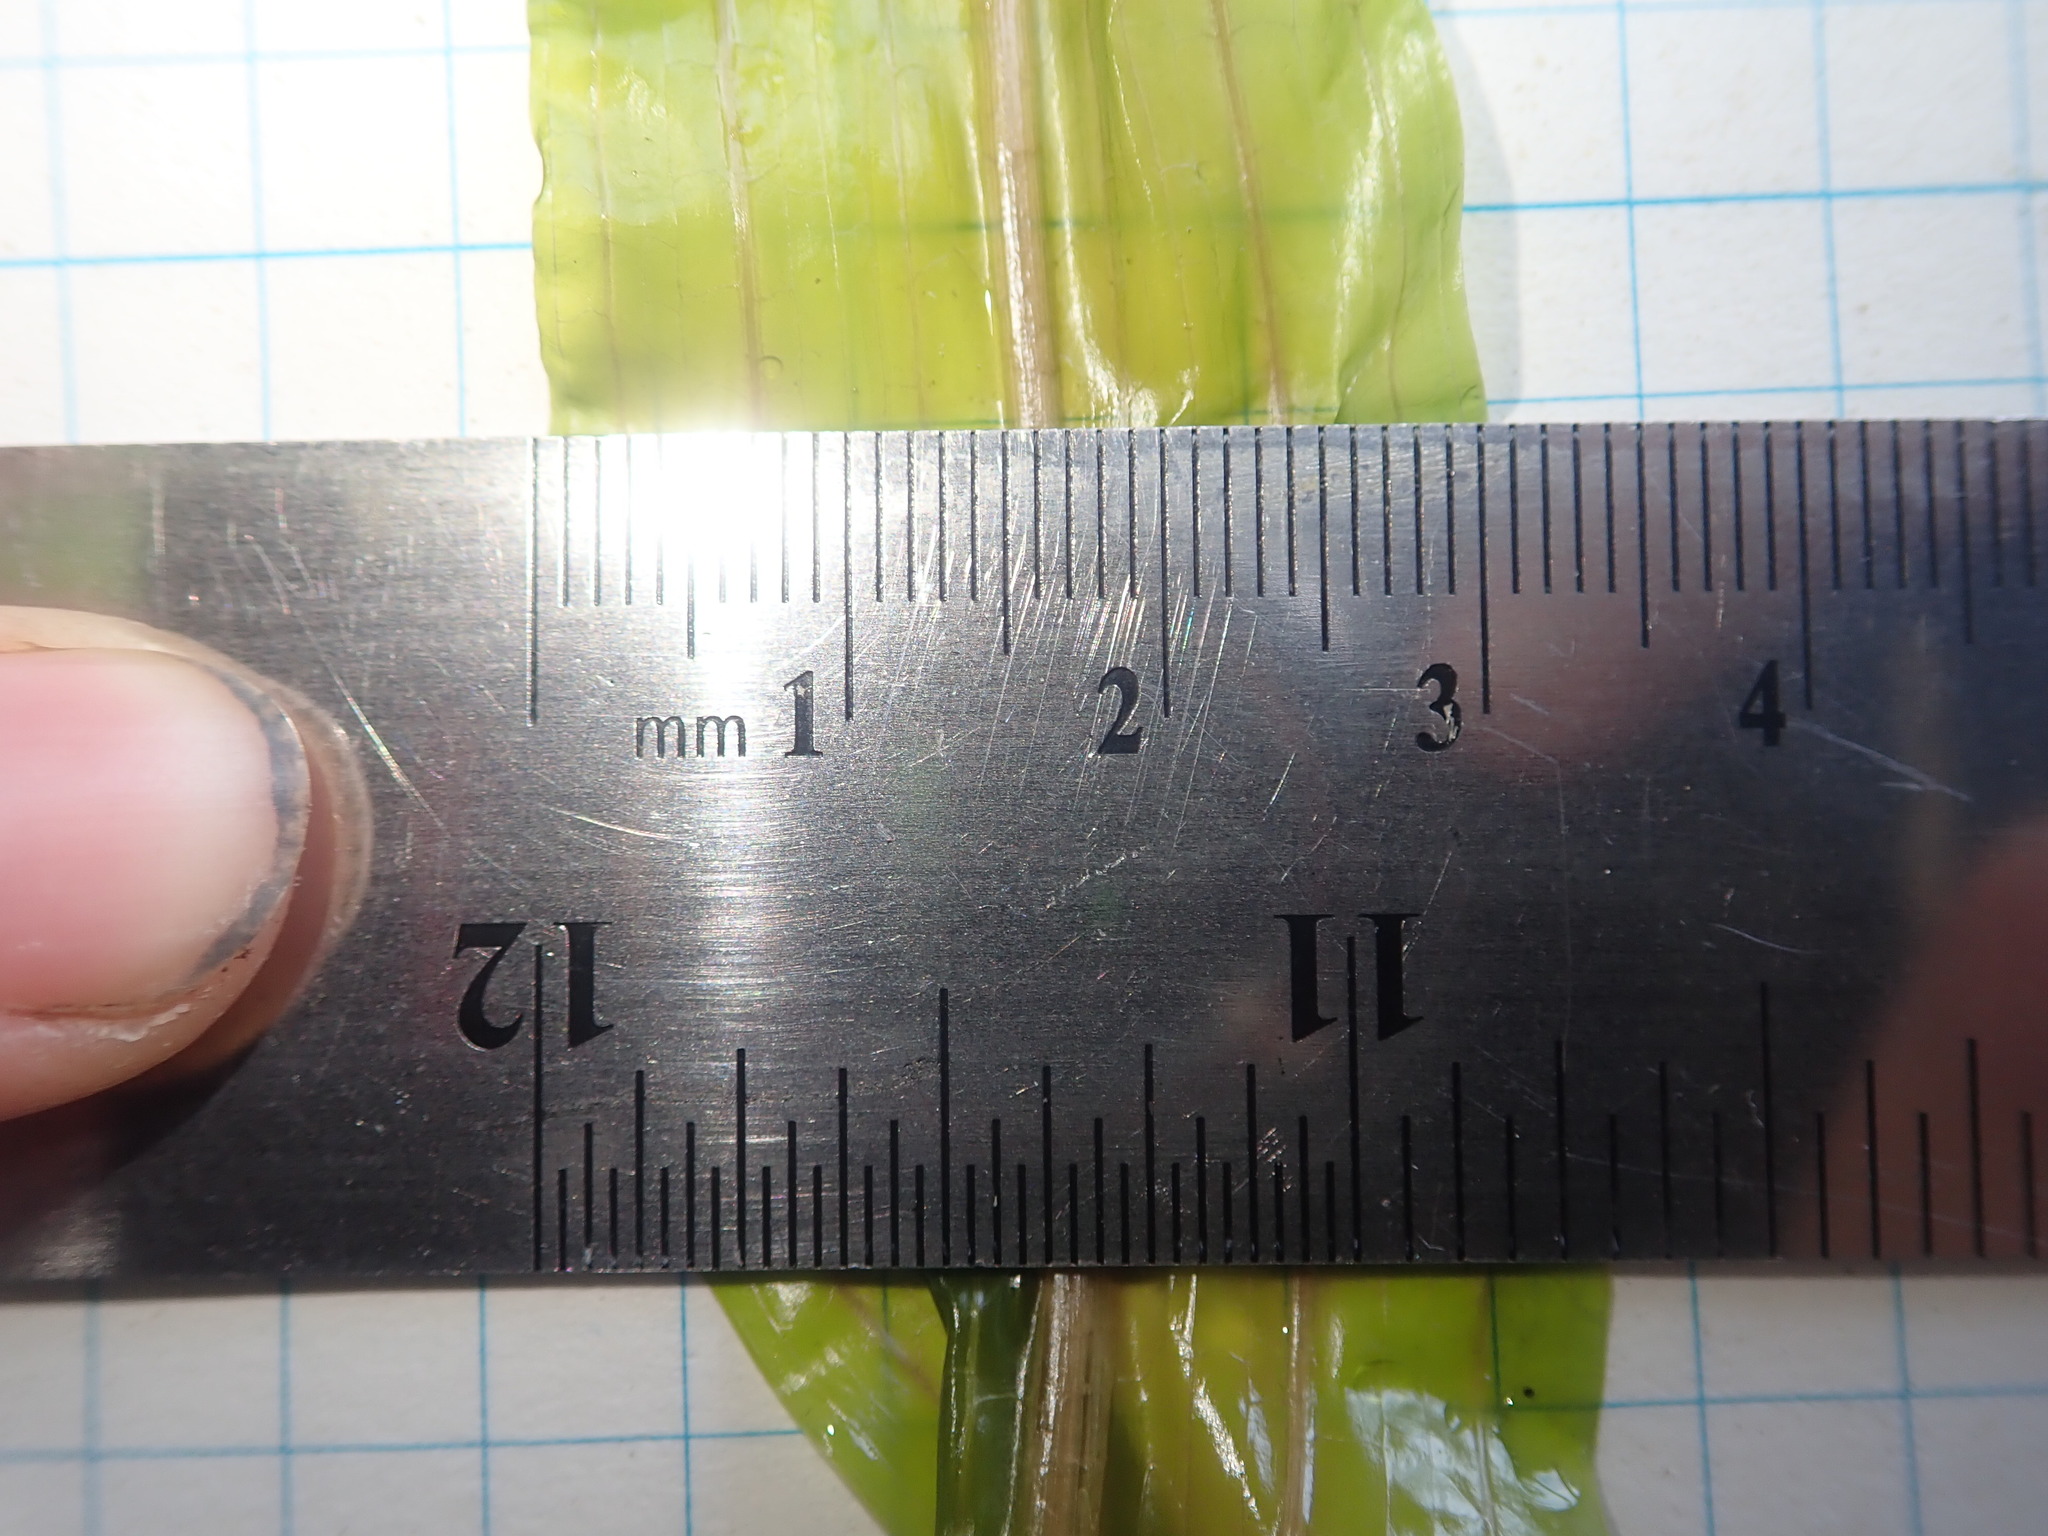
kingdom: Plantae
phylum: Tracheophyta
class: Liliopsida
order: Alismatales
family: Potamogetonaceae
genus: Potamogeton
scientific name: Potamogeton richardsonii
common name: Richardson's pondweed
